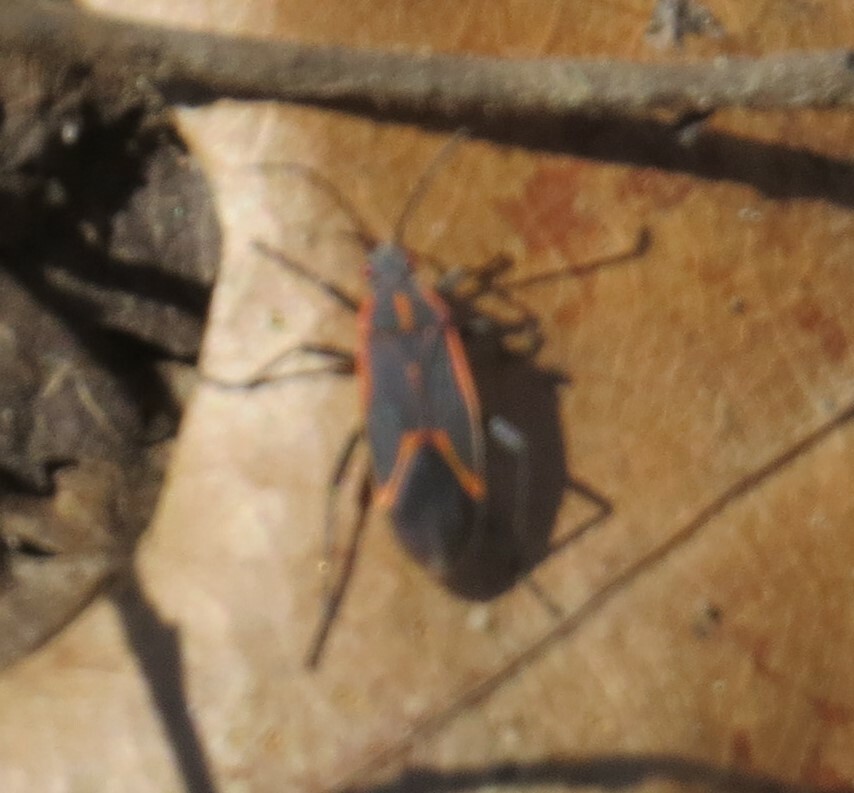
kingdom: Animalia
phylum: Arthropoda
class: Insecta
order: Hemiptera
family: Rhopalidae
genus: Boisea
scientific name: Boisea trivittata
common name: Boxelder bug
